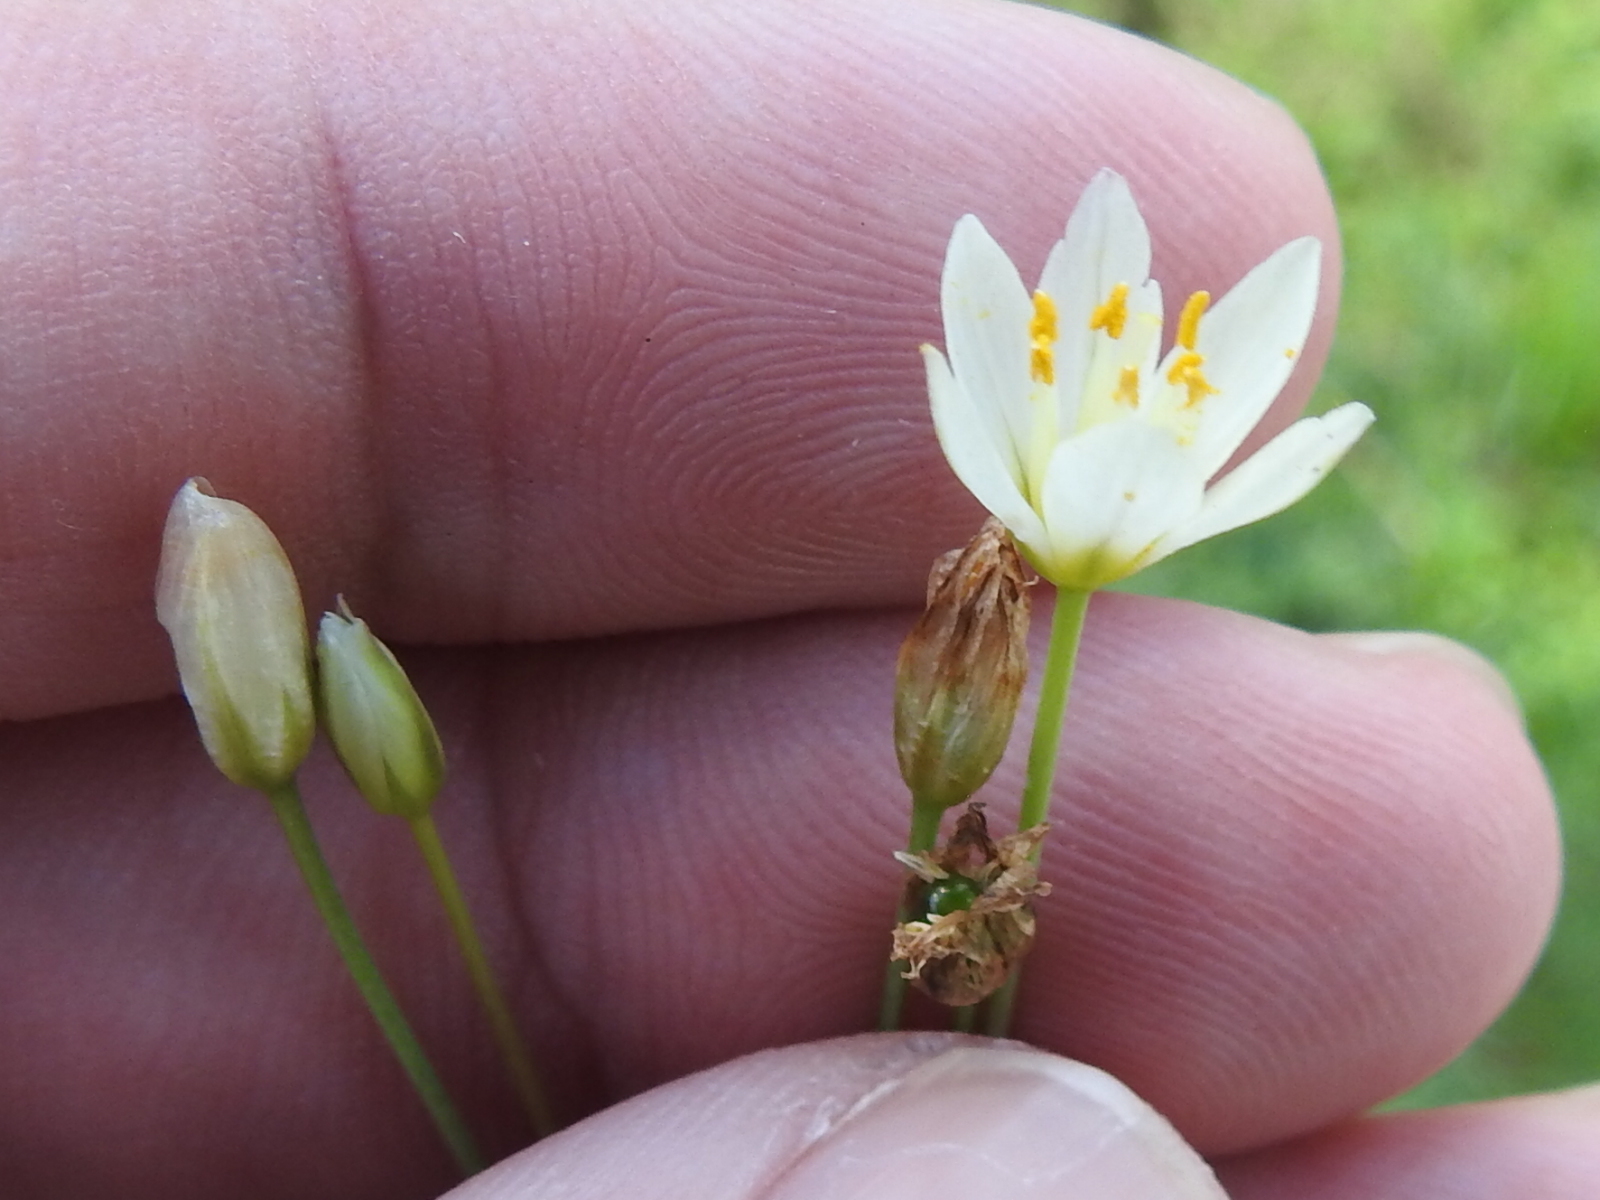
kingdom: Plantae
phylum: Tracheophyta
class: Liliopsida
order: Asparagales
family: Amaryllidaceae
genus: Nothoscordum
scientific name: Nothoscordum bivalve
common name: Crow-poison
